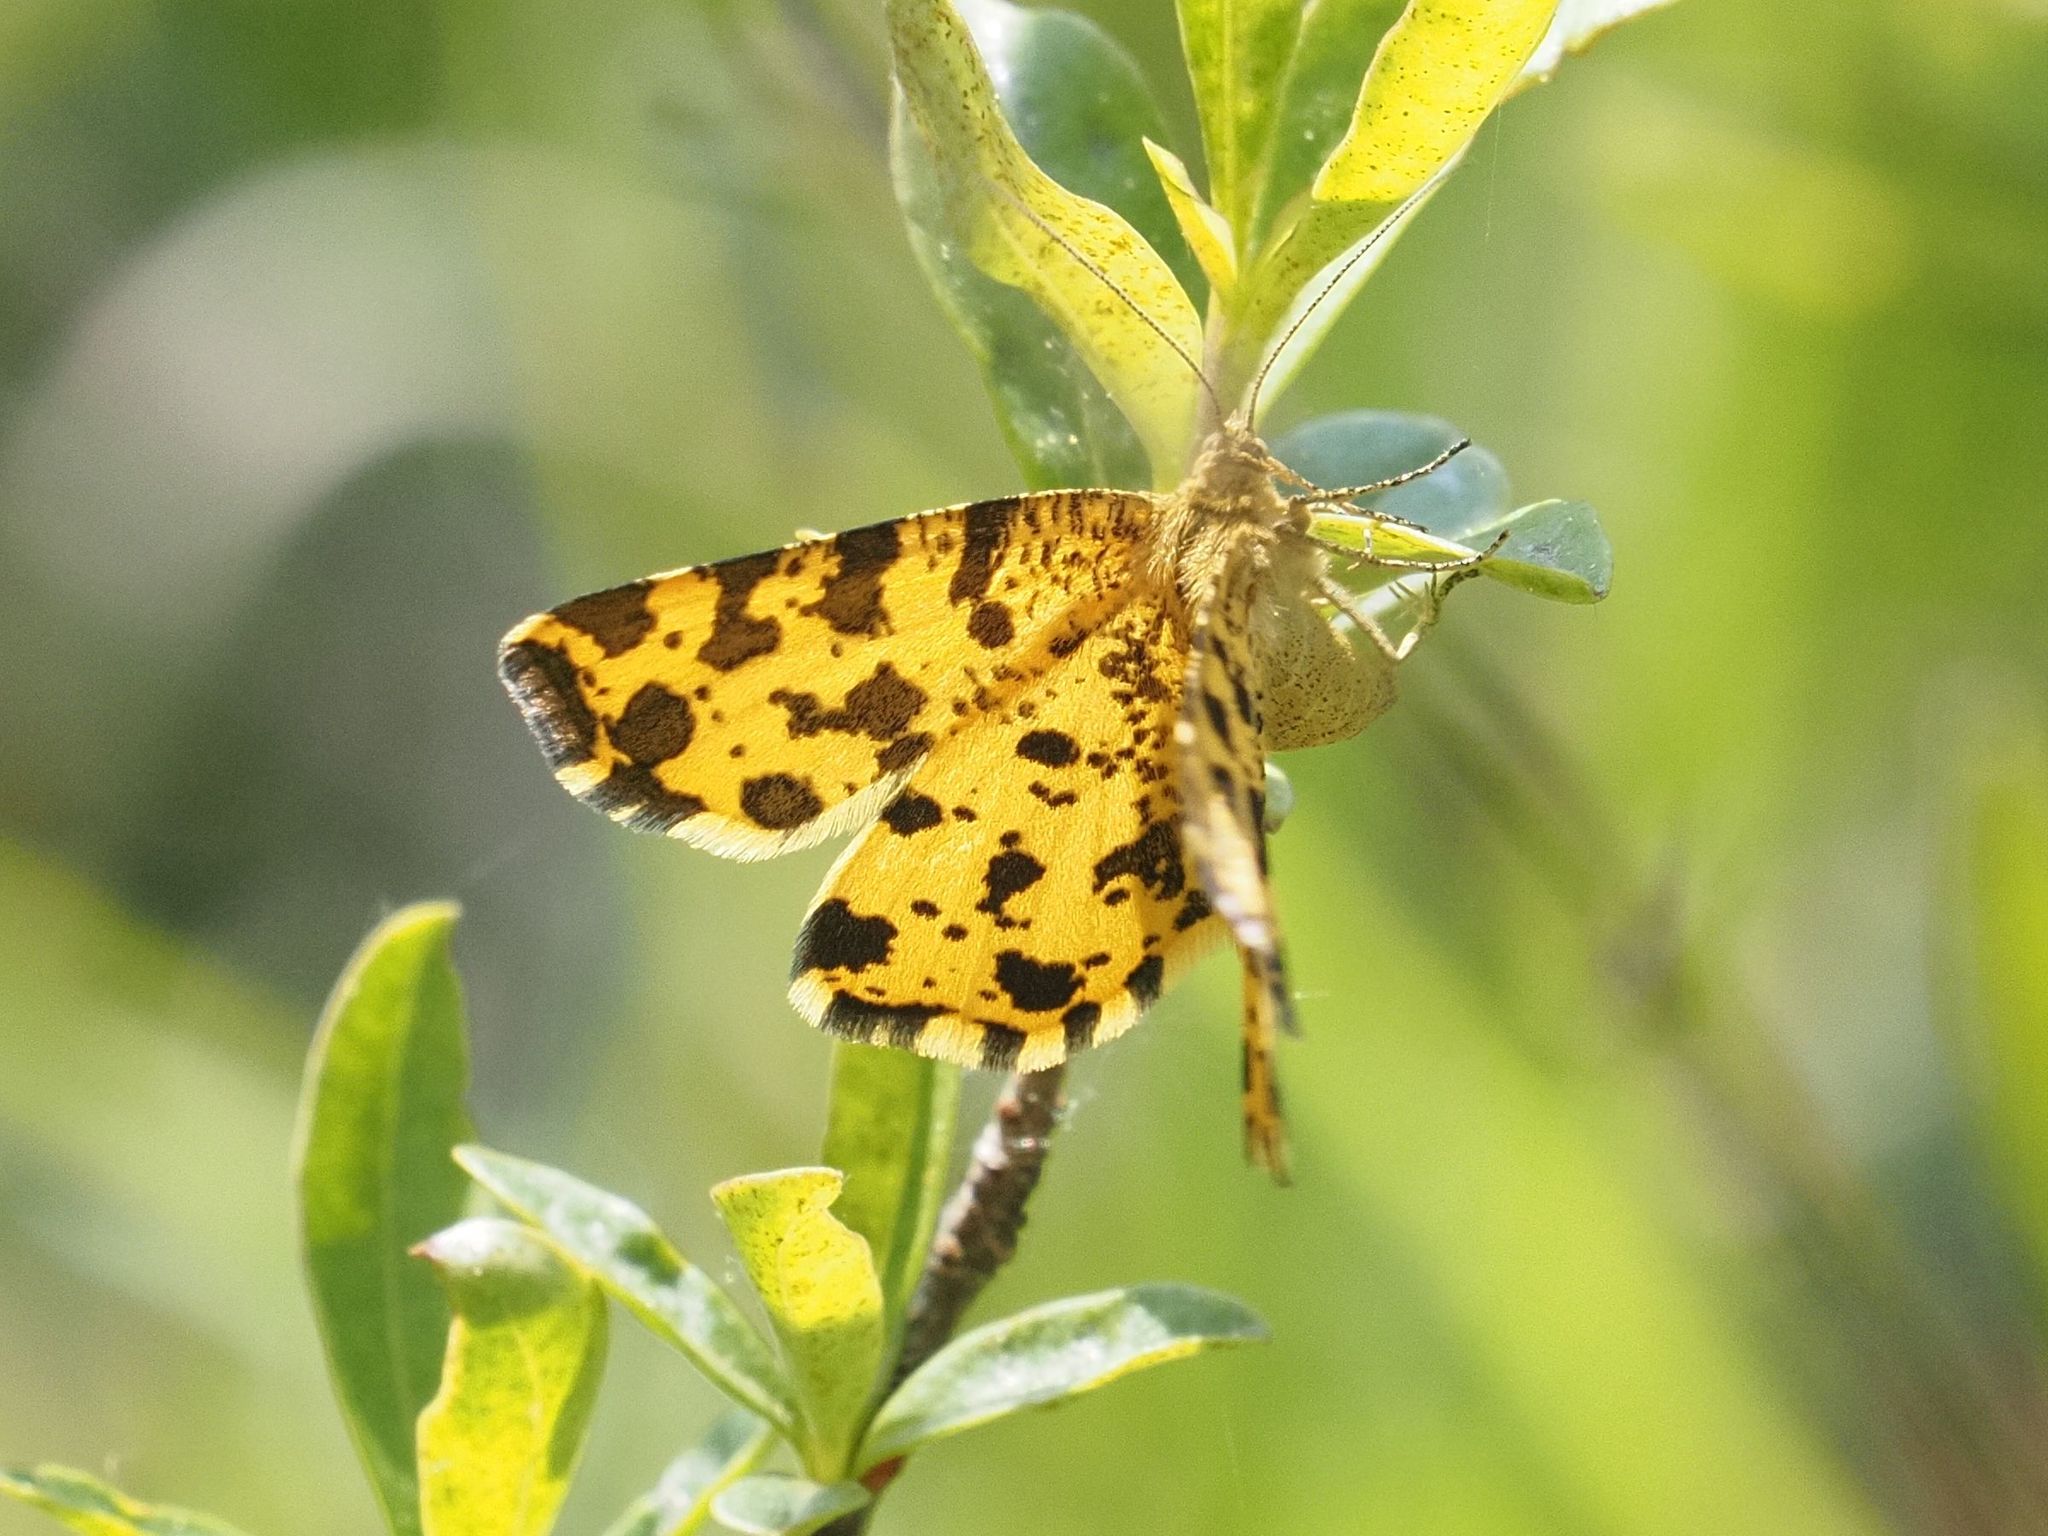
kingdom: Animalia
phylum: Arthropoda
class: Insecta
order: Lepidoptera
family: Geometridae
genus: Pseudopanthera
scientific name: Pseudopanthera macularia
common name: Speckled yellow
